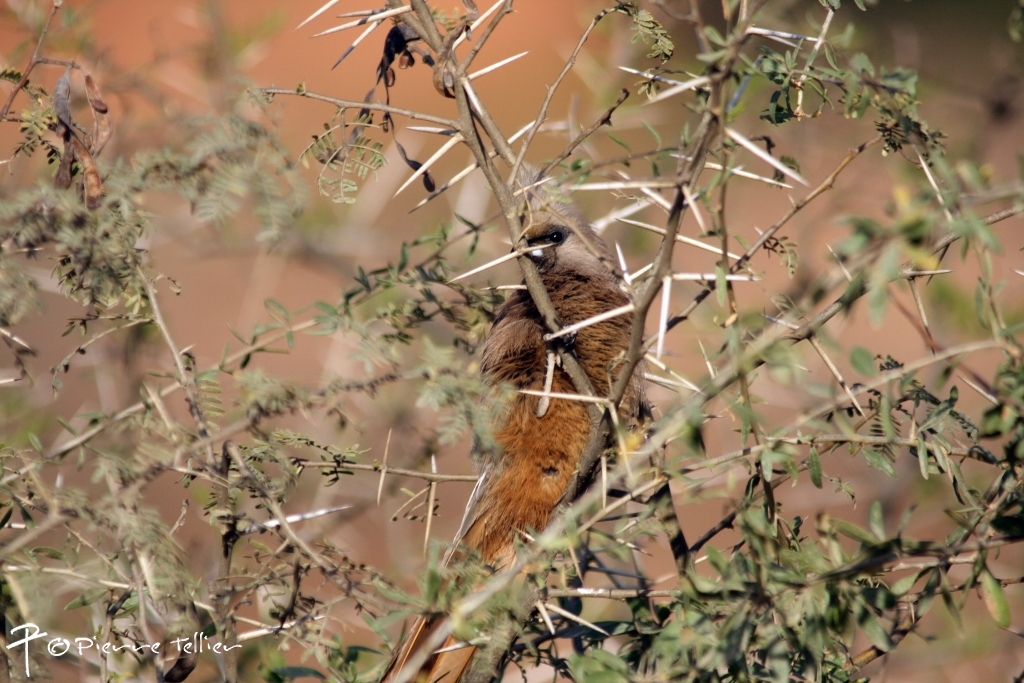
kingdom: Animalia
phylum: Chordata
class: Aves
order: Coliiformes
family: Coliidae
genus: Colius
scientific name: Colius striatus
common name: Speckled mousebird
